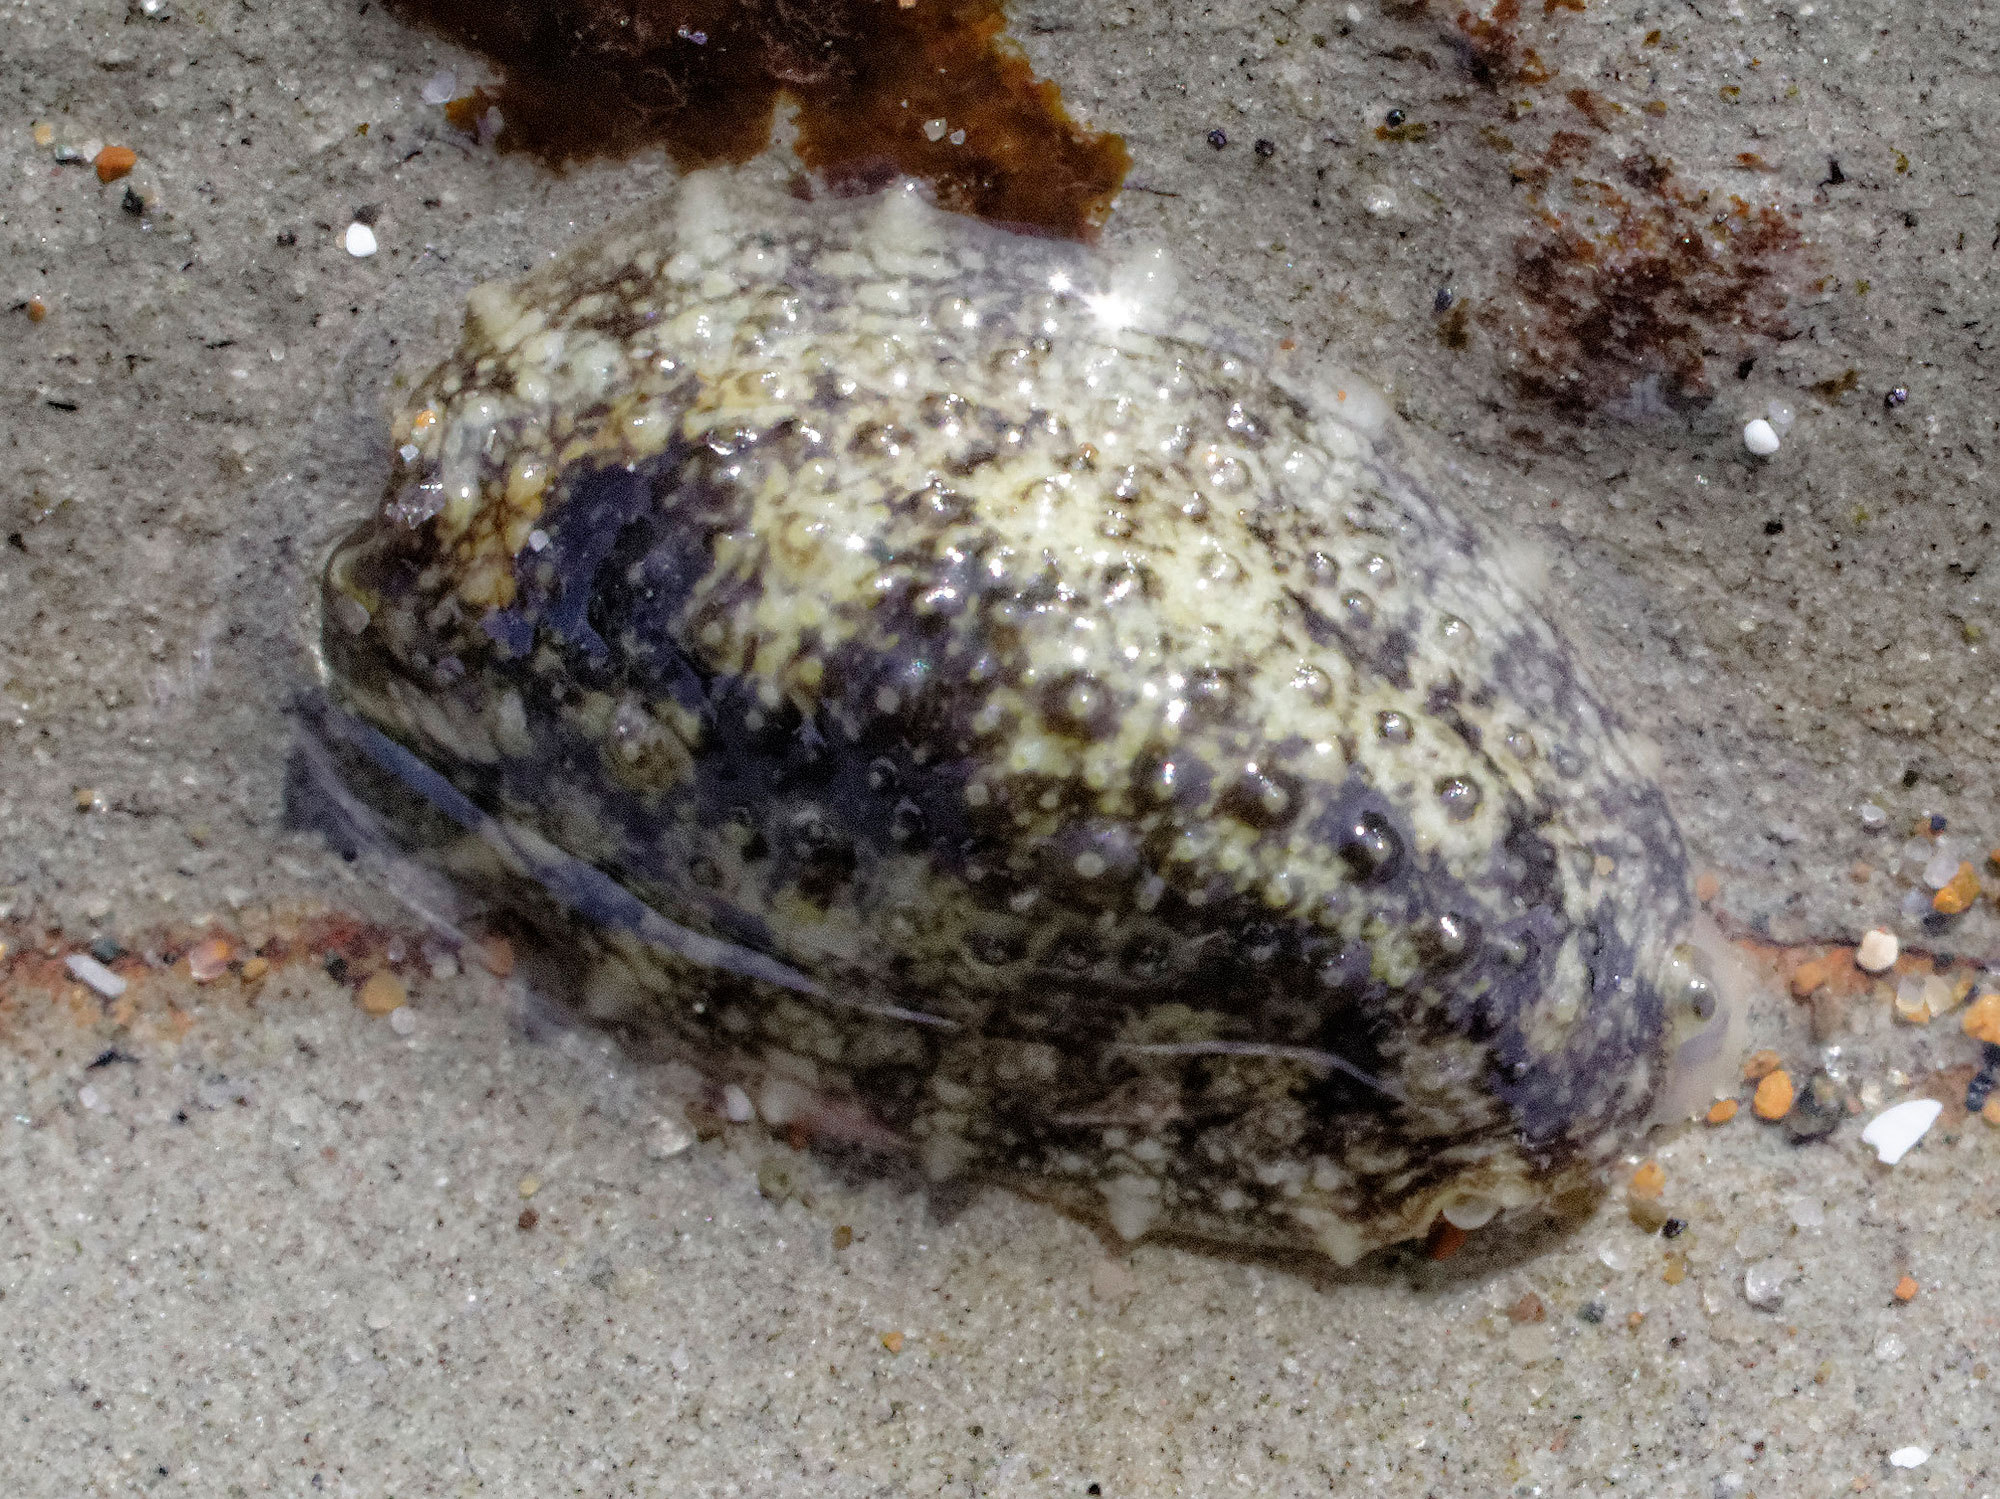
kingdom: Animalia
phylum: Mollusca
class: Gastropoda
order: Systellommatophora
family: Onchidiidae
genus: Onchidella
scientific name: Onchidella nigricans
